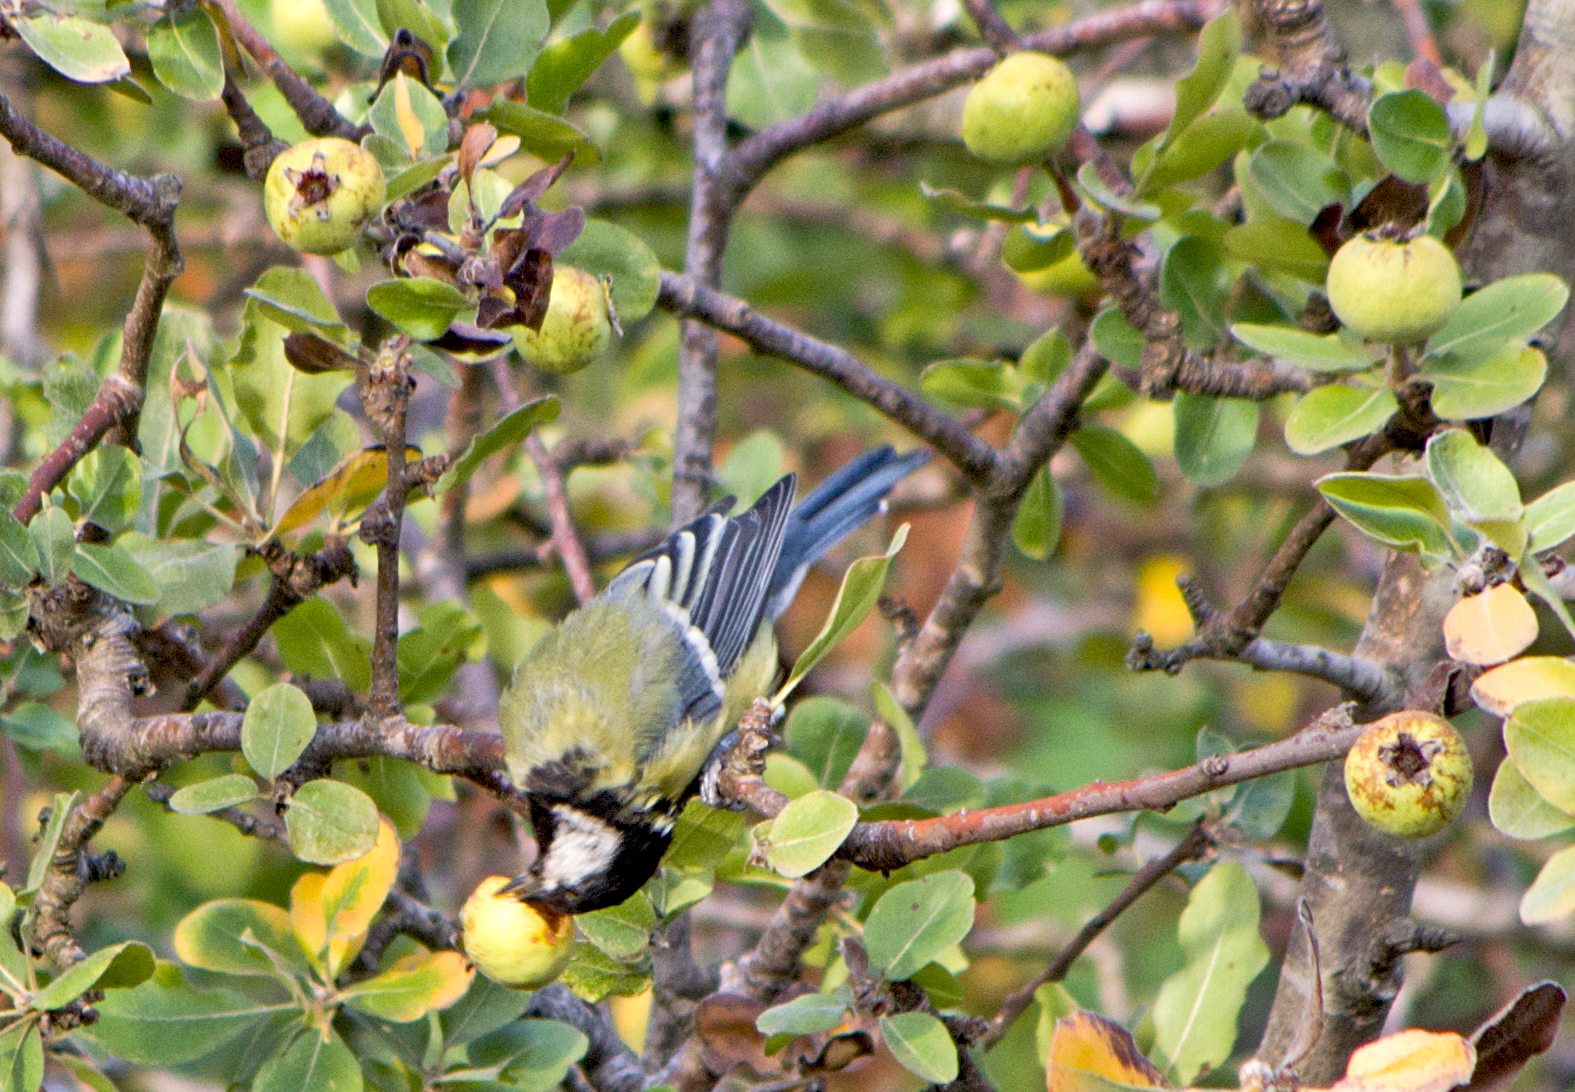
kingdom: Animalia
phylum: Chordata
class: Aves
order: Passeriformes
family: Paridae
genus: Parus
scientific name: Parus major
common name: Great tit
